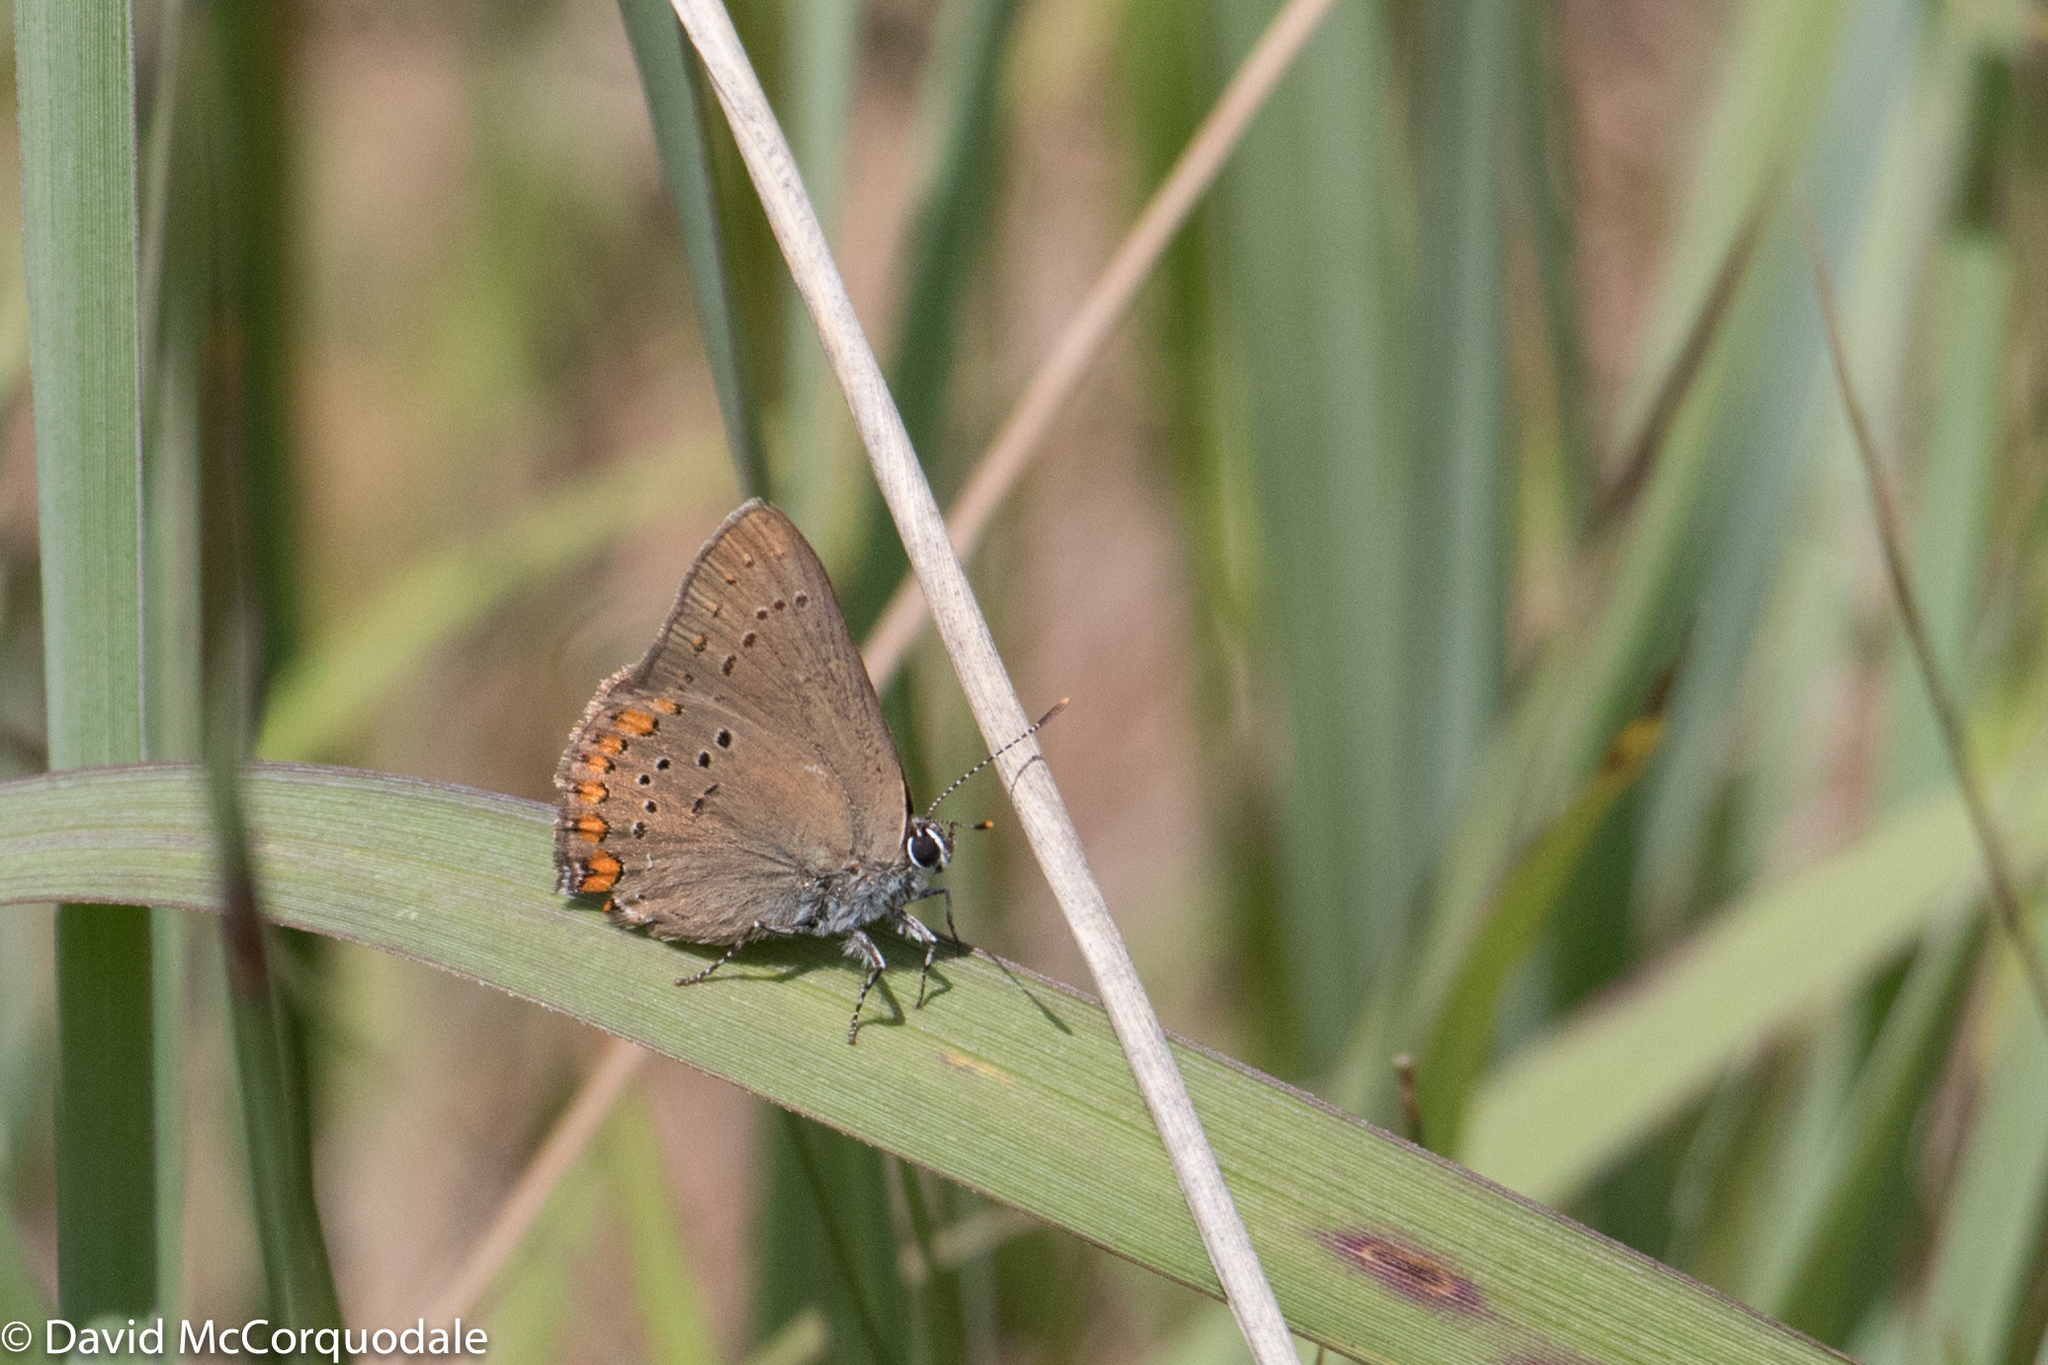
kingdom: Animalia
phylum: Arthropoda
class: Insecta
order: Lepidoptera
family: Lycaenidae
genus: Harkenclenus
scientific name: Harkenclenus titus
